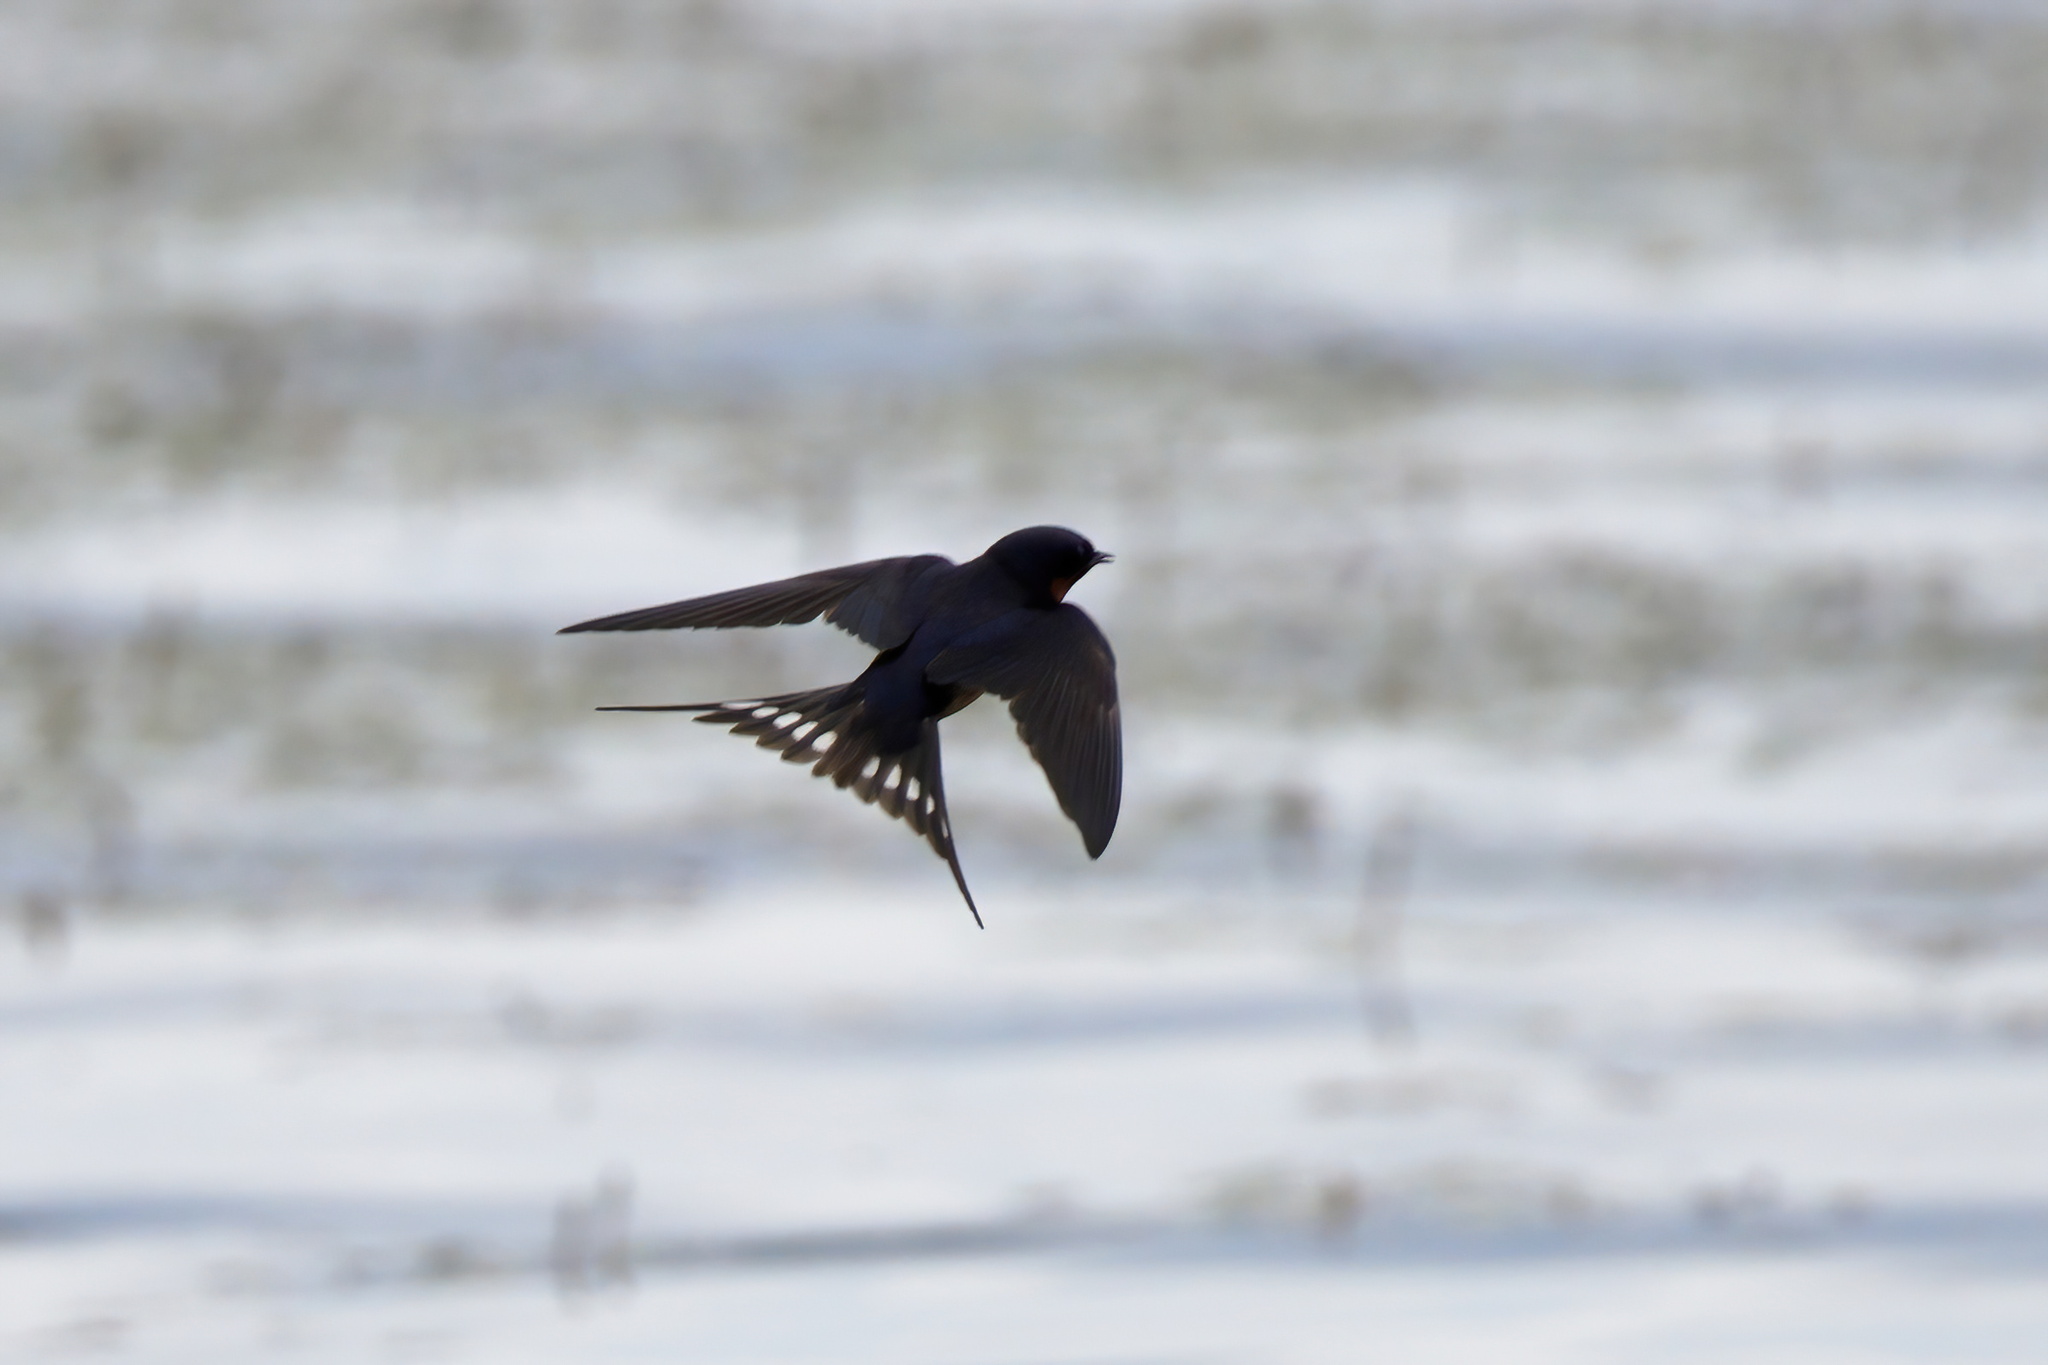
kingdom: Animalia
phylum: Chordata
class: Aves
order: Passeriformes
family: Hirundinidae
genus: Hirundo
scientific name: Hirundo rustica
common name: Barn swallow
